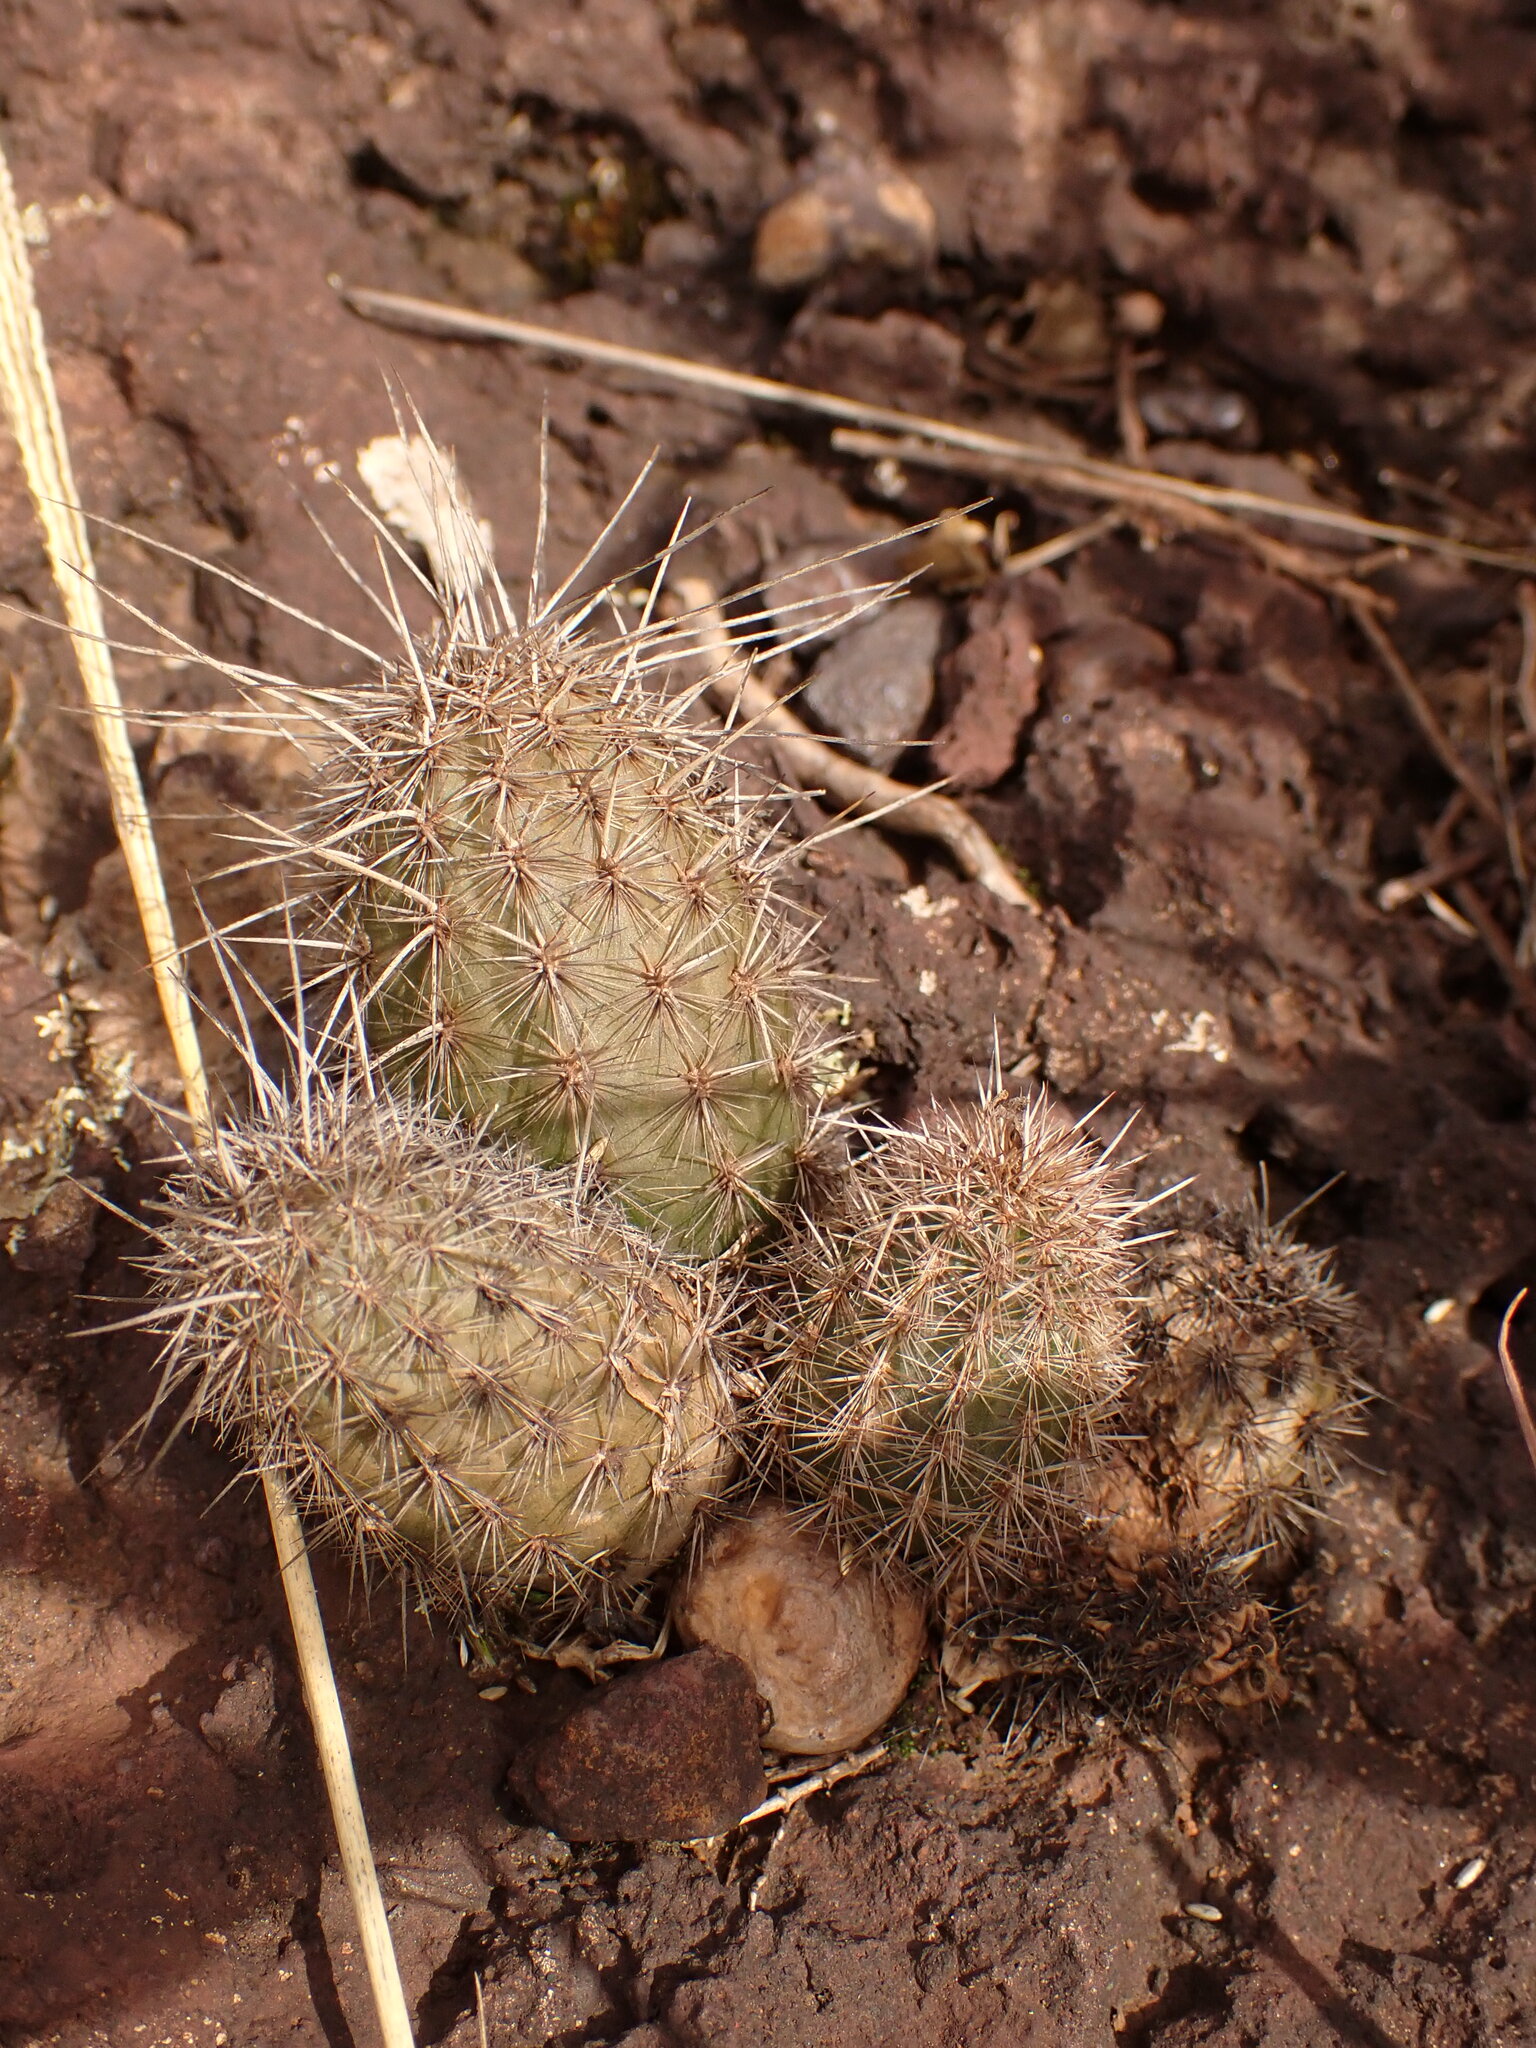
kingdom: Plantae
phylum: Tracheophyta
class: Magnoliopsida
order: Caryophyllales
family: Cactaceae
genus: Arthrocereus
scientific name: Arthrocereus glaziovii
